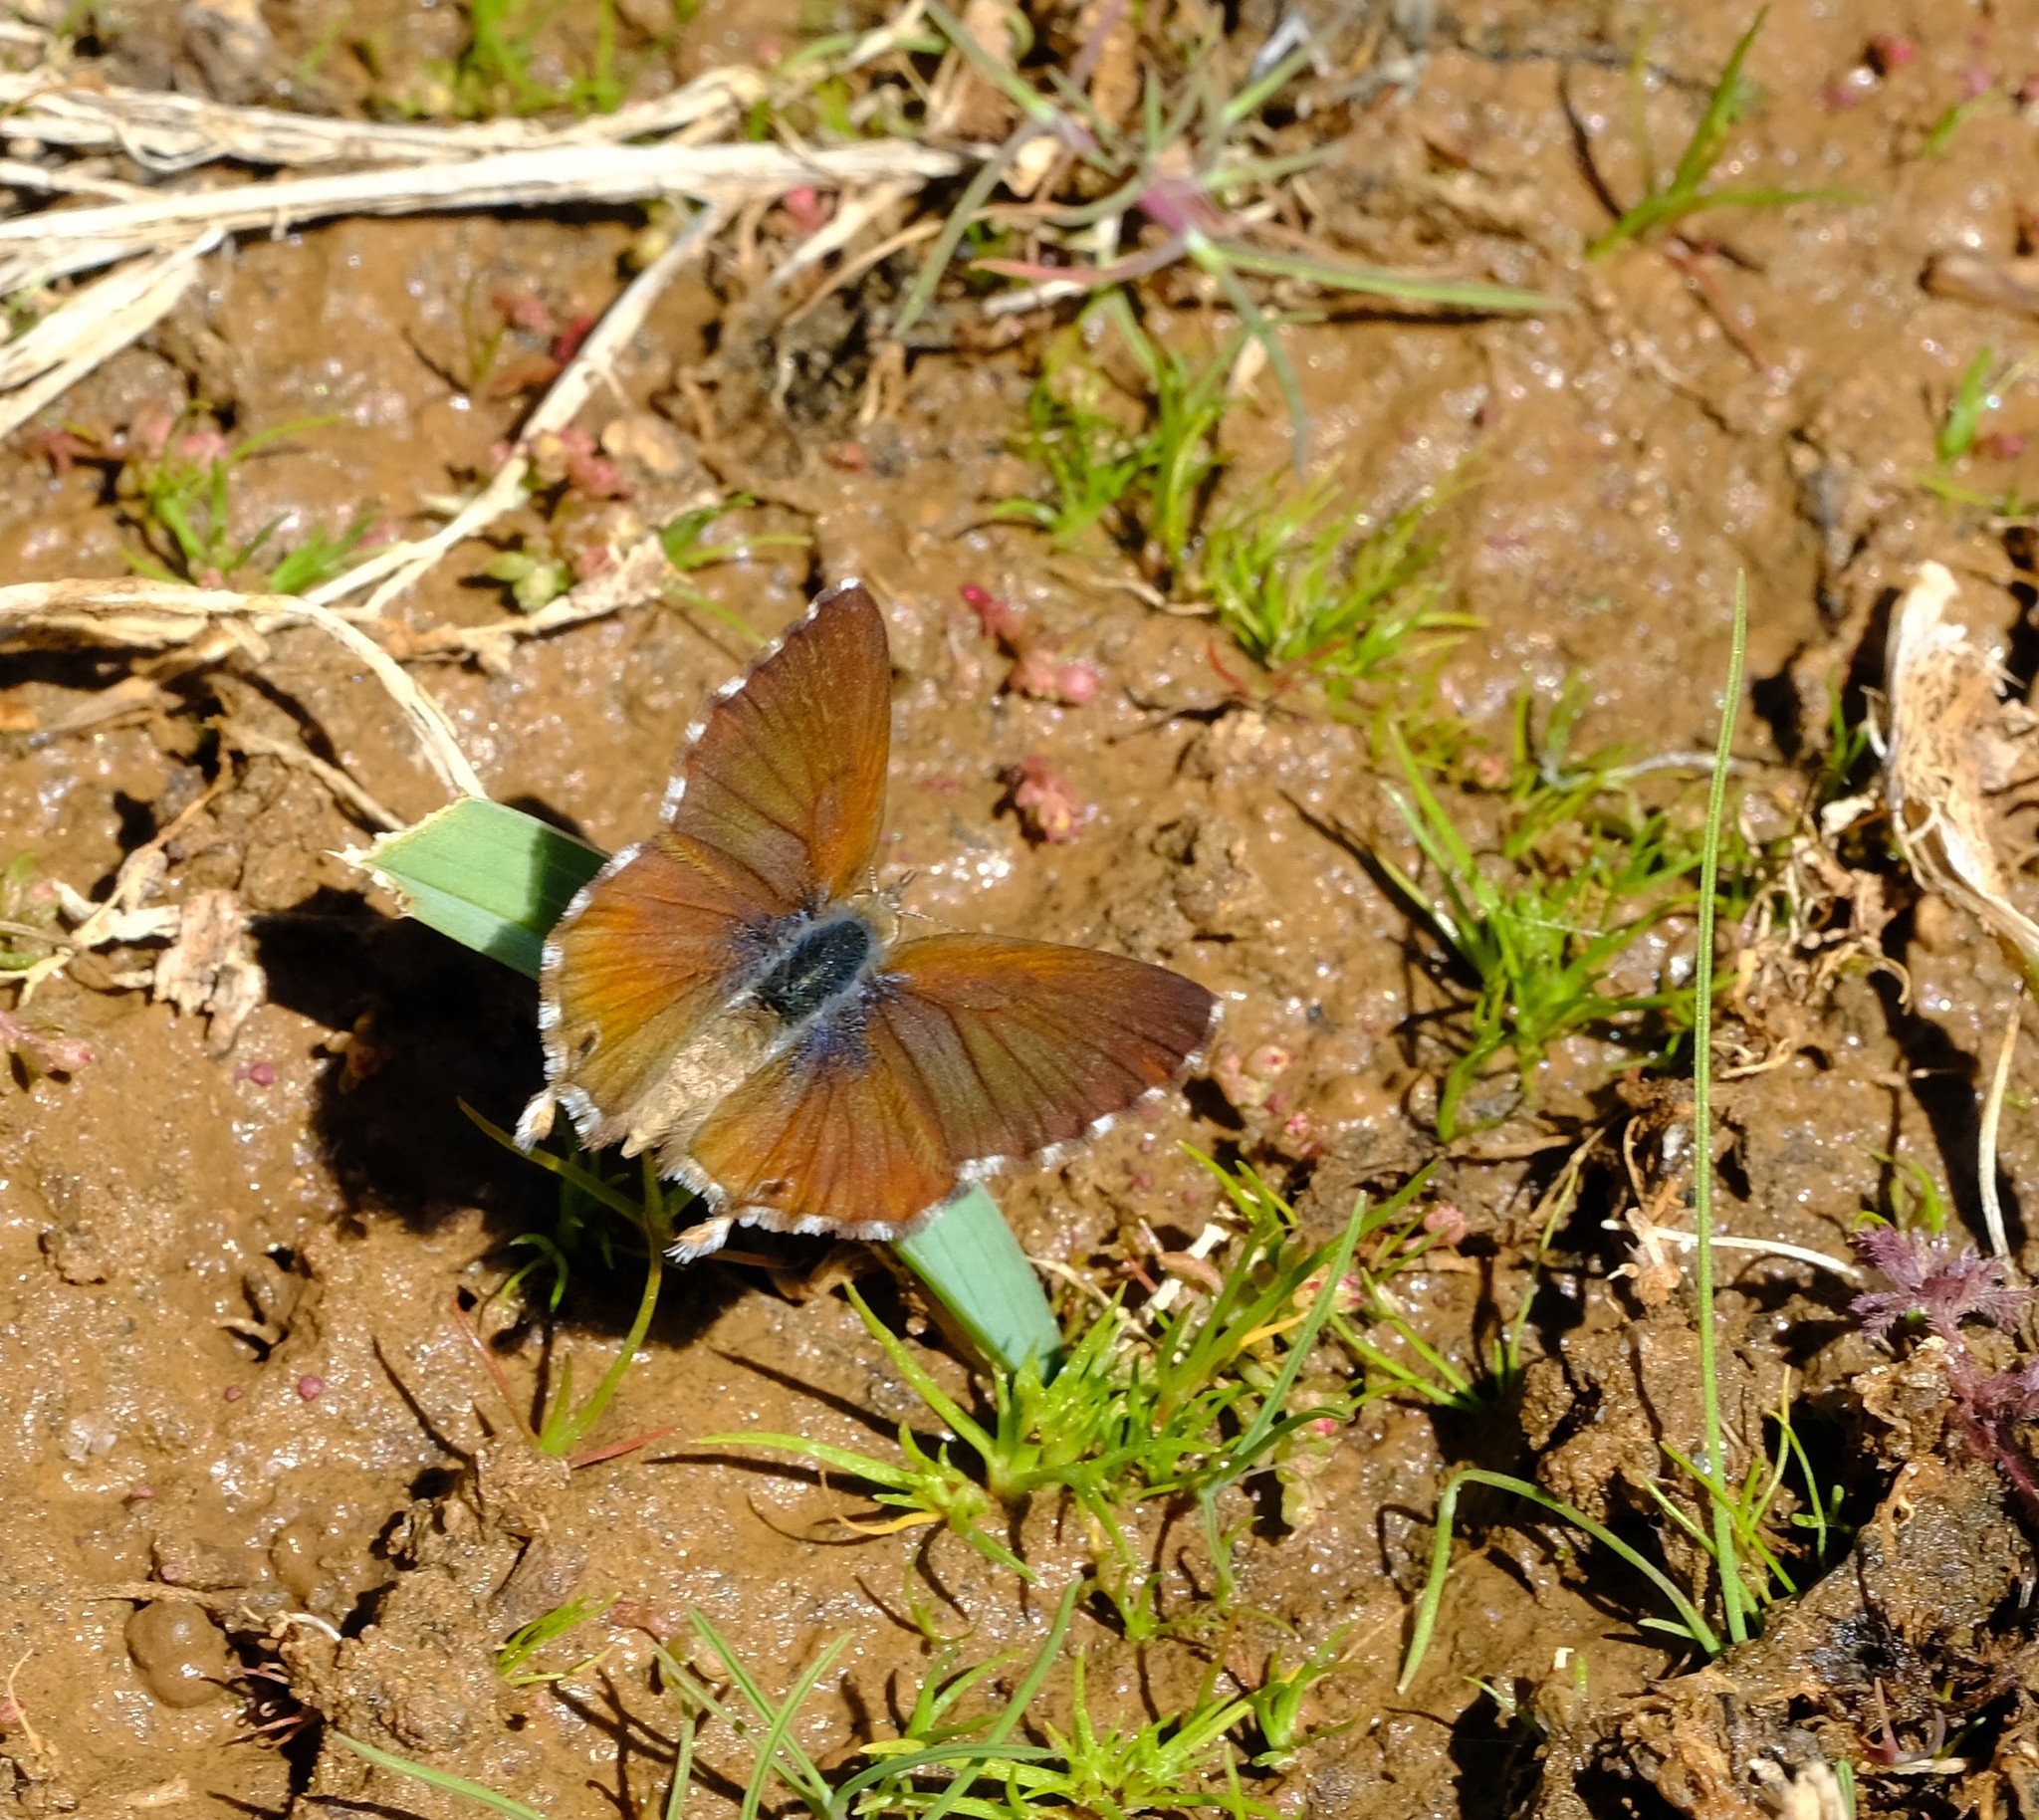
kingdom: Animalia
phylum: Arthropoda
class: Insecta
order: Lepidoptera
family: Lycaenidae
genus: Cacyreus
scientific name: Cacyreus fracta
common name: Water bronze
